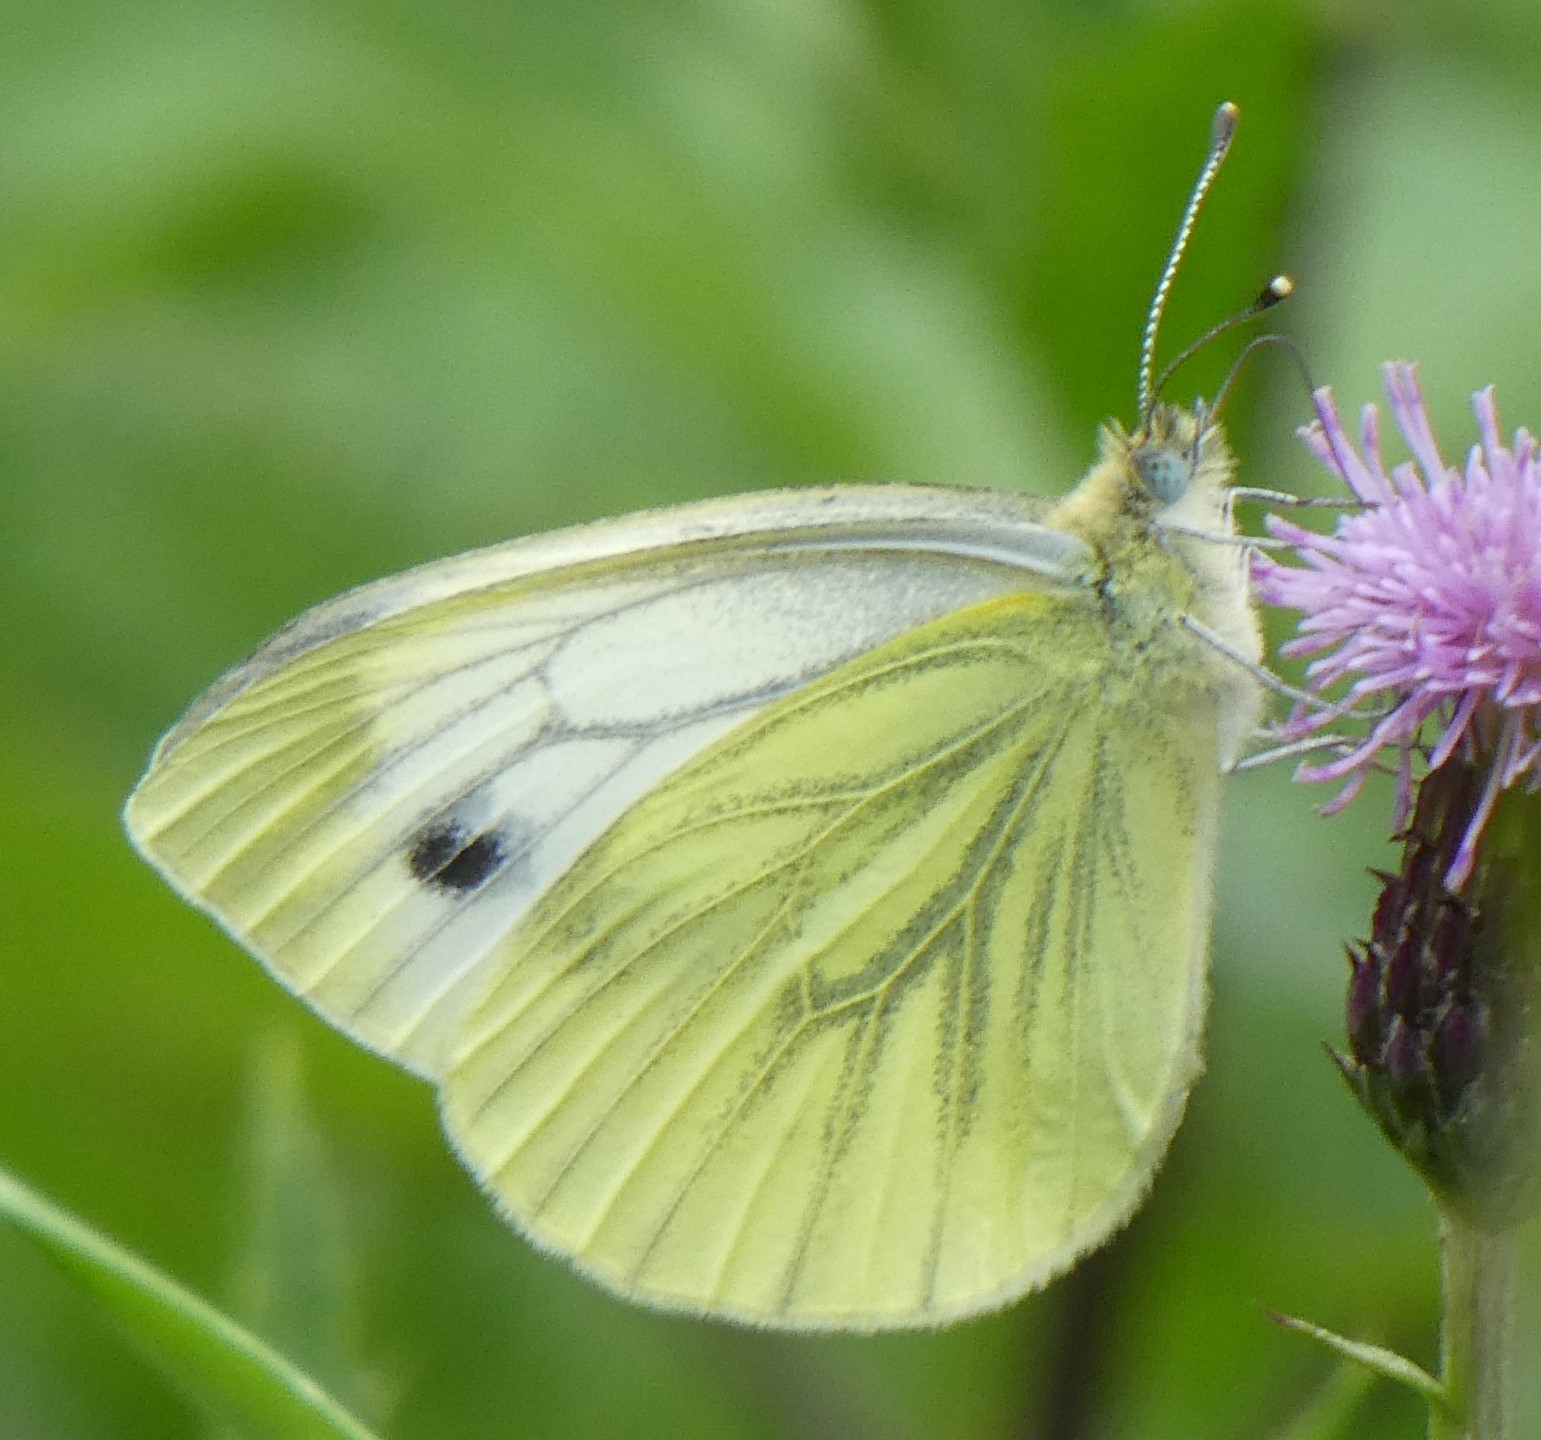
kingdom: Animalia
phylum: Arthropoda
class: Insecta
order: Lepidoptera
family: Pieridae
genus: Pieris
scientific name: Pieris napi
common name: Green-veined white
